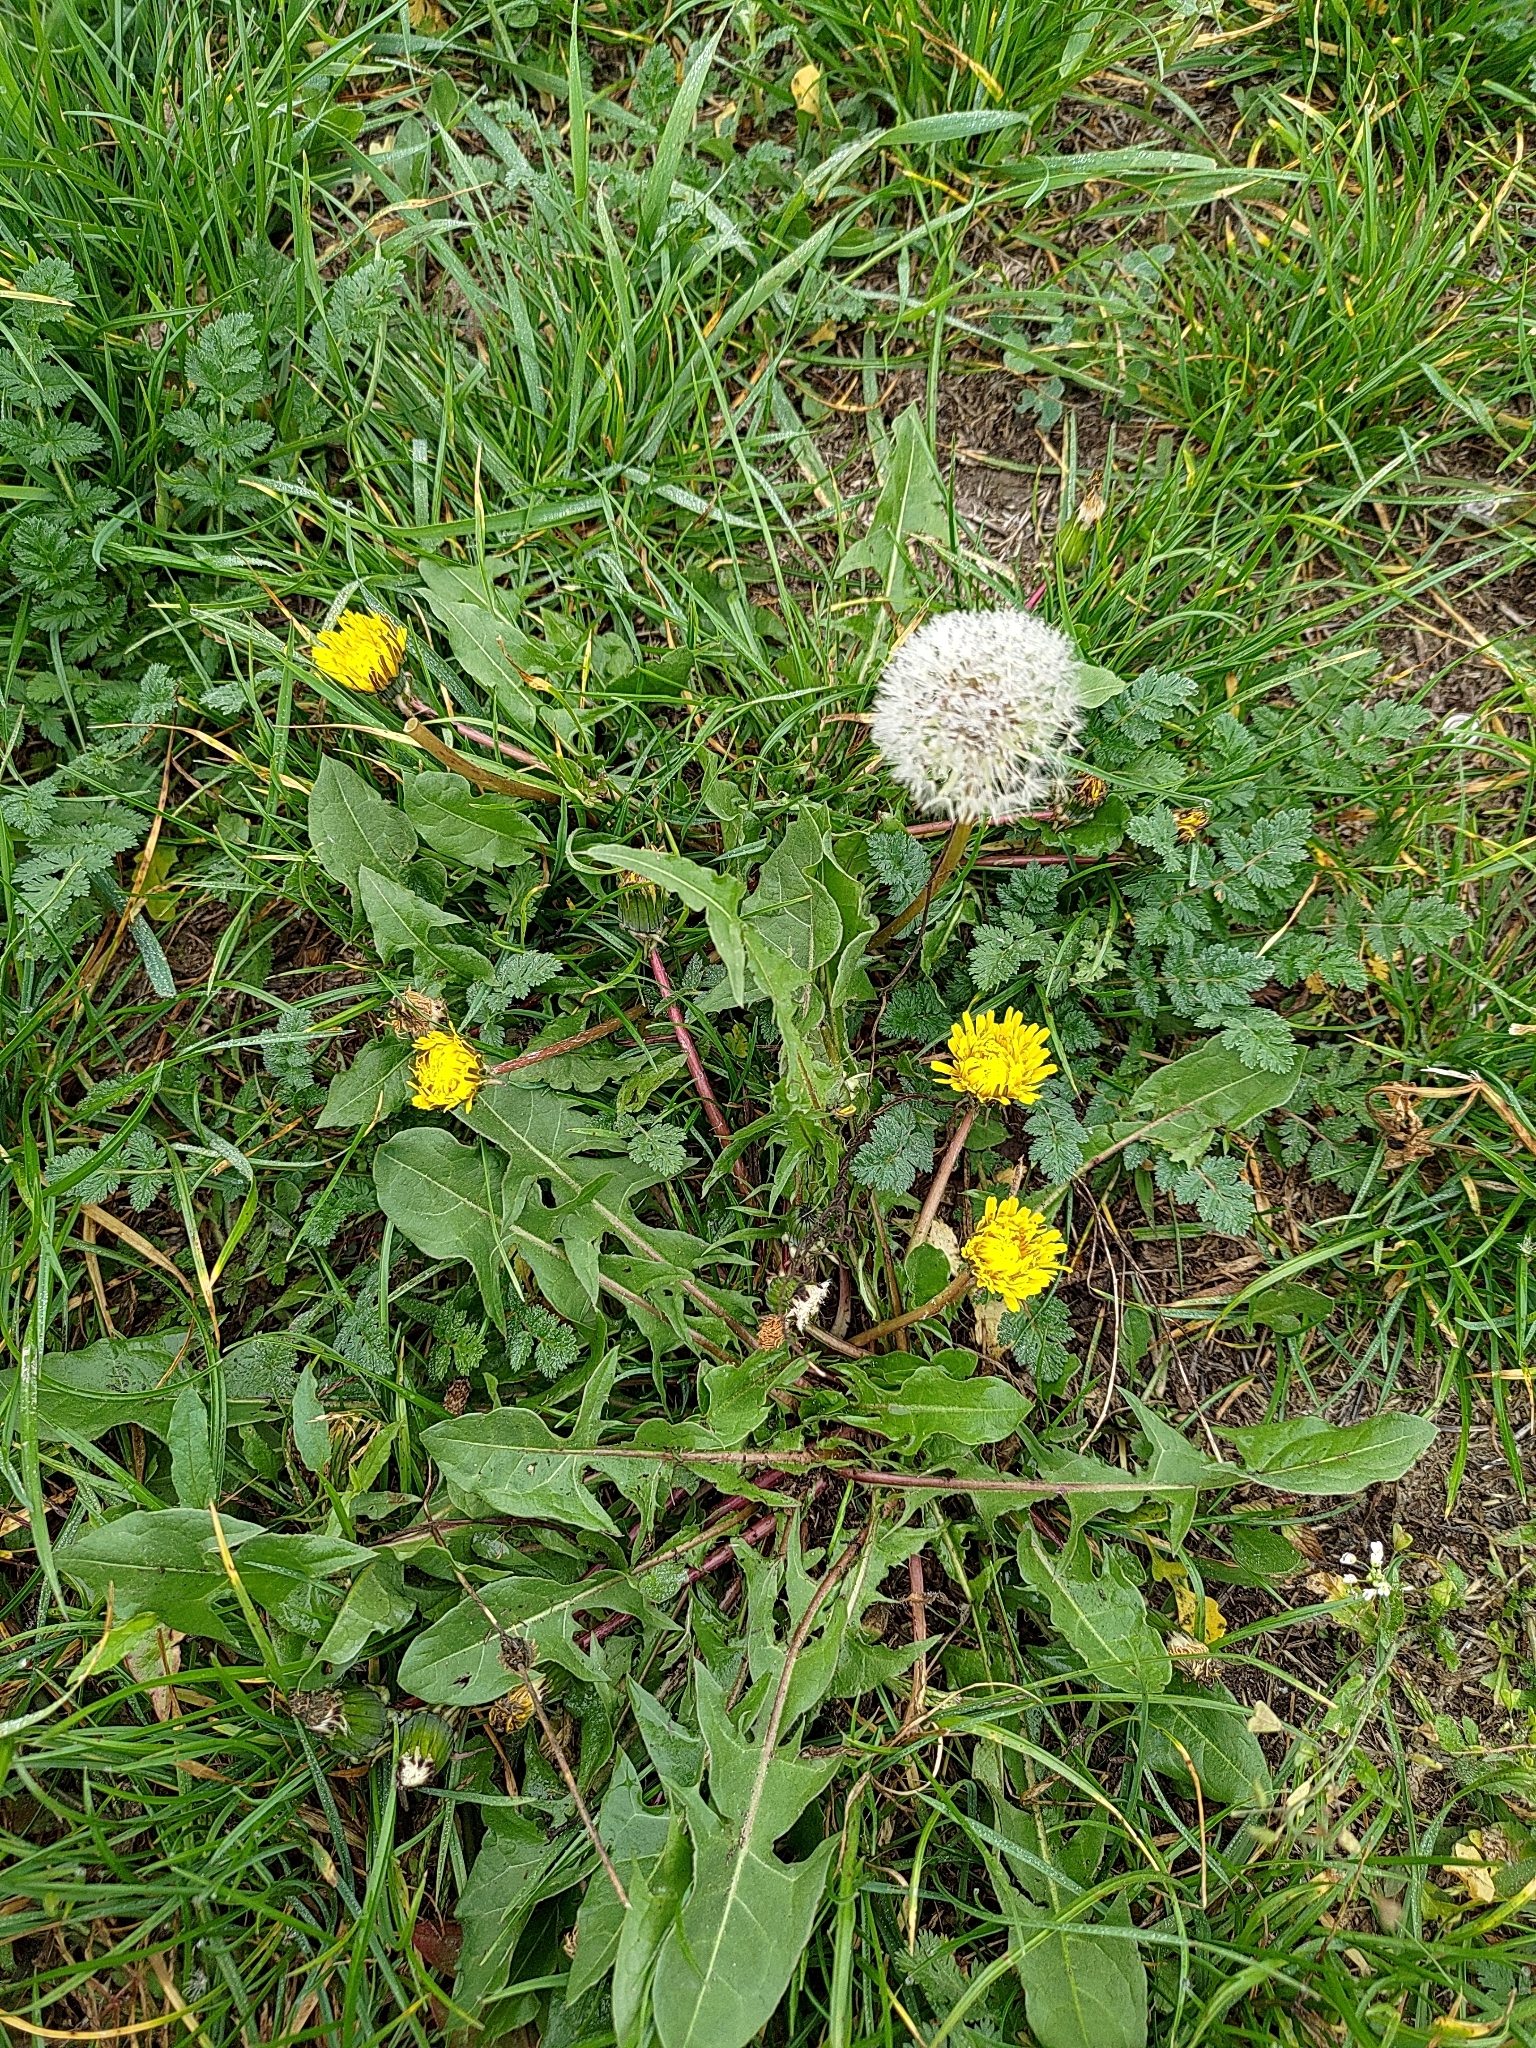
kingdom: Plantae
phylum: Tracheophyta
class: Magnoliopsida
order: Asterales
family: Asteraceae
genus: Taraxacum
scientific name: Taraxacum officinale
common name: Common dandelion
